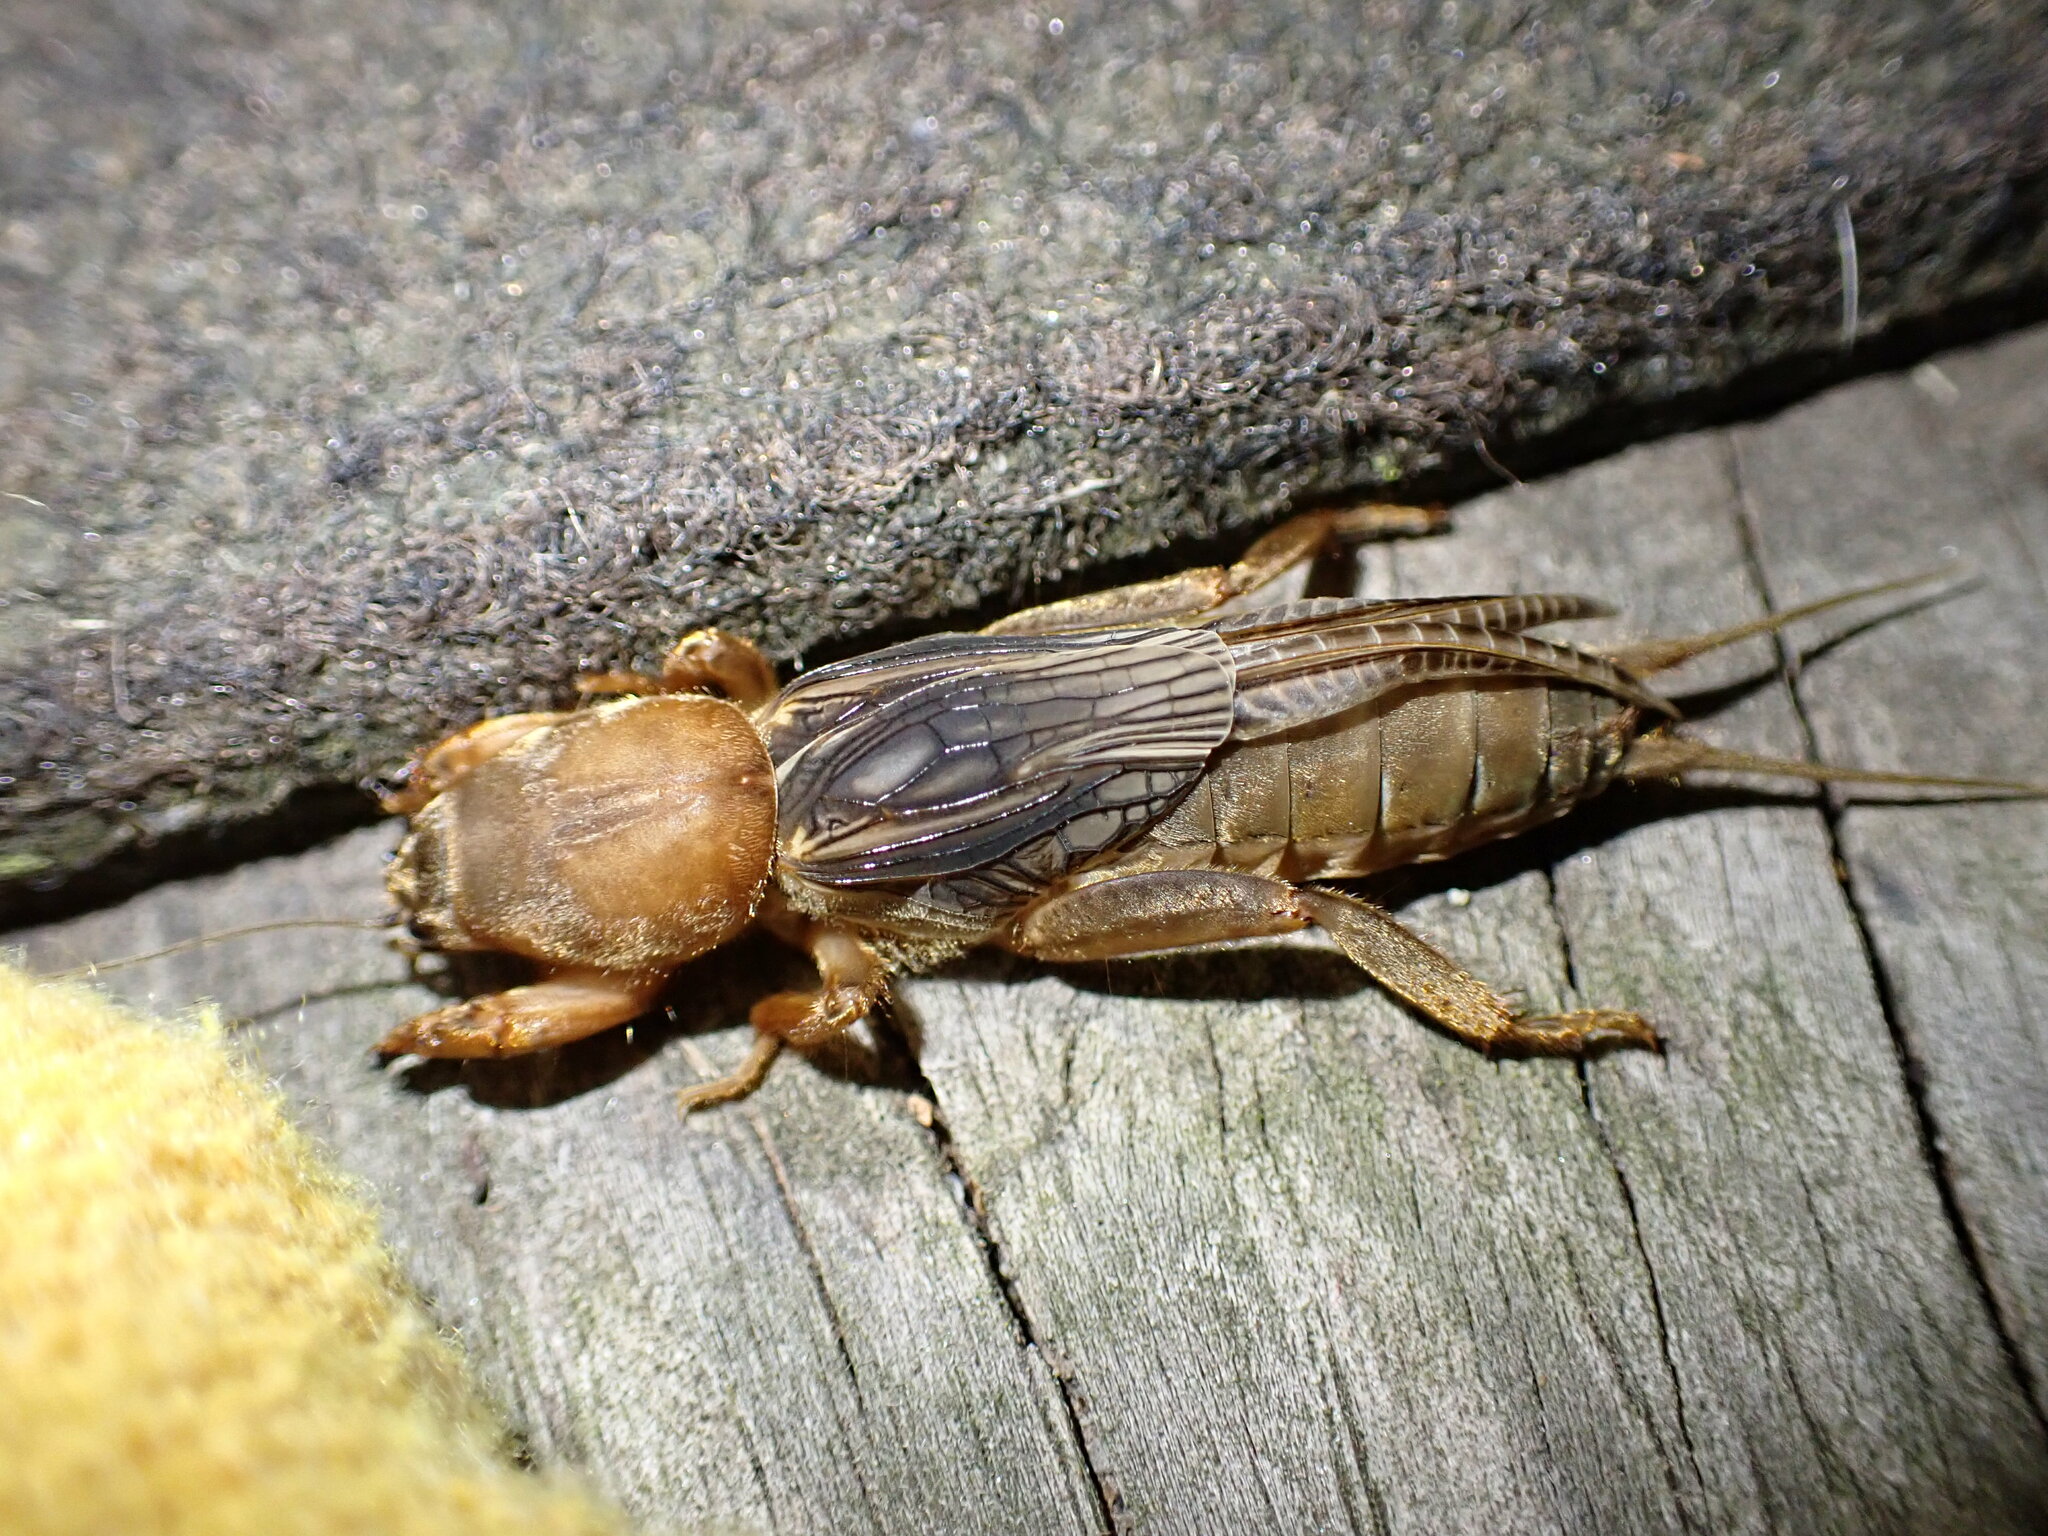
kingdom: Animalia
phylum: Arthropoda
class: Insecta
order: Orthoptera
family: Gryllotalpidae
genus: Neocurtilla
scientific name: Neocurtilla hexadactyla
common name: Northern mole cricket
